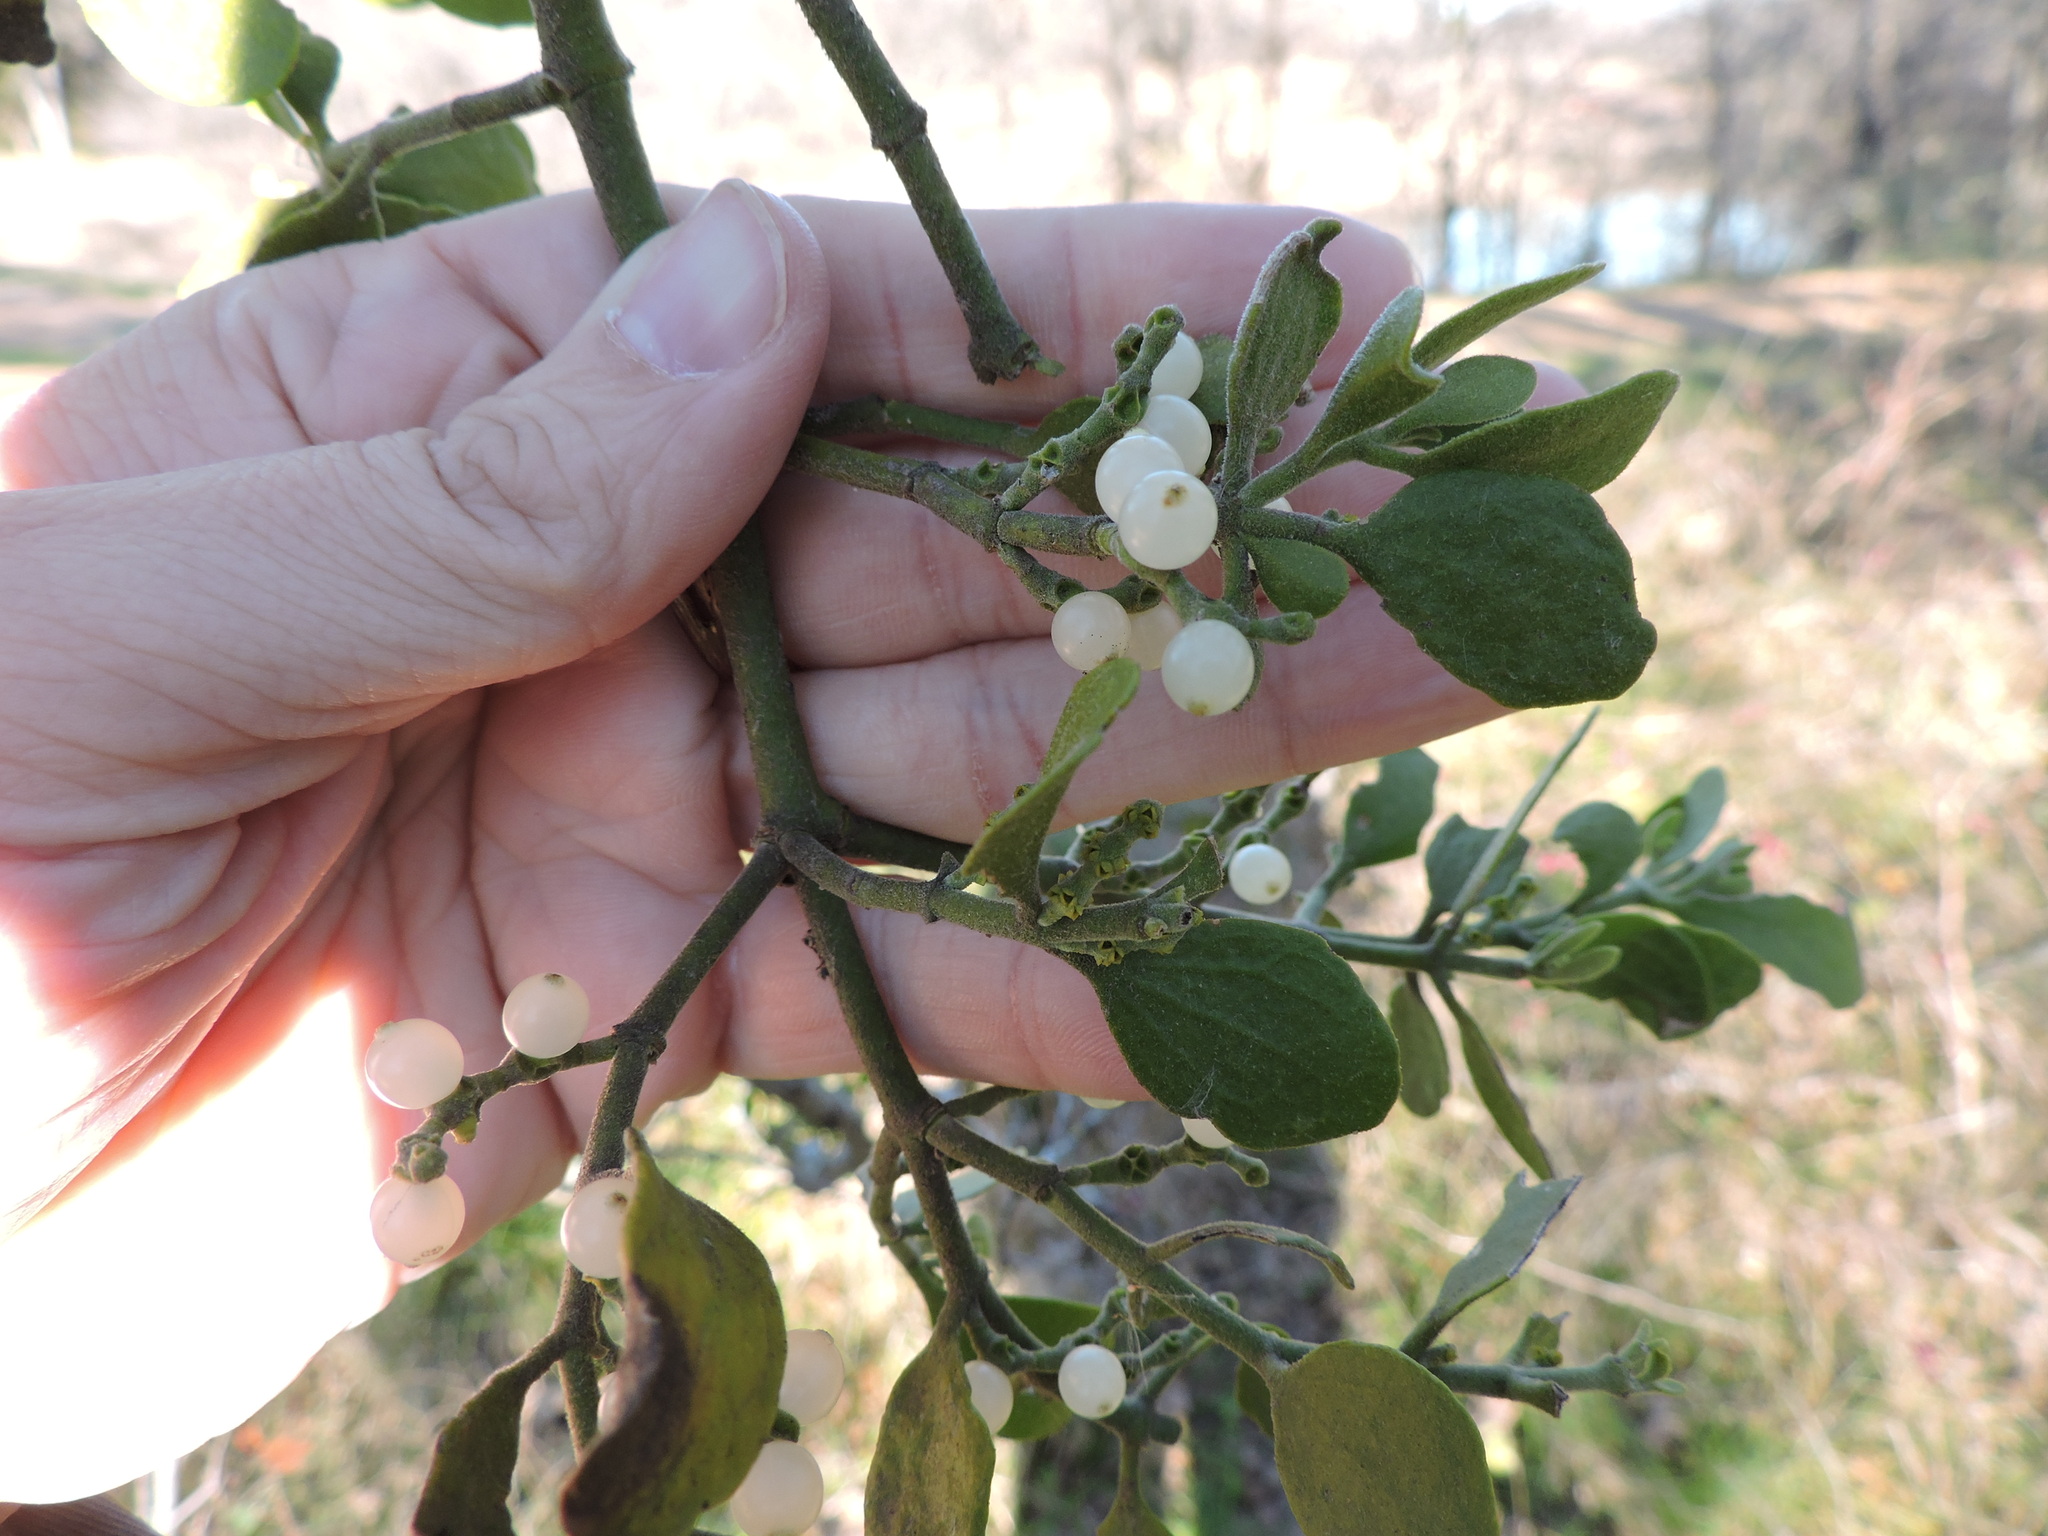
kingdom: Plantae
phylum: Tracheophyta
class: Magnoliopsida
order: Santalales
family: Viscaceae
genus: Phoradendron
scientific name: Phoradendron leucarpum
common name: Pacific mistletoe
